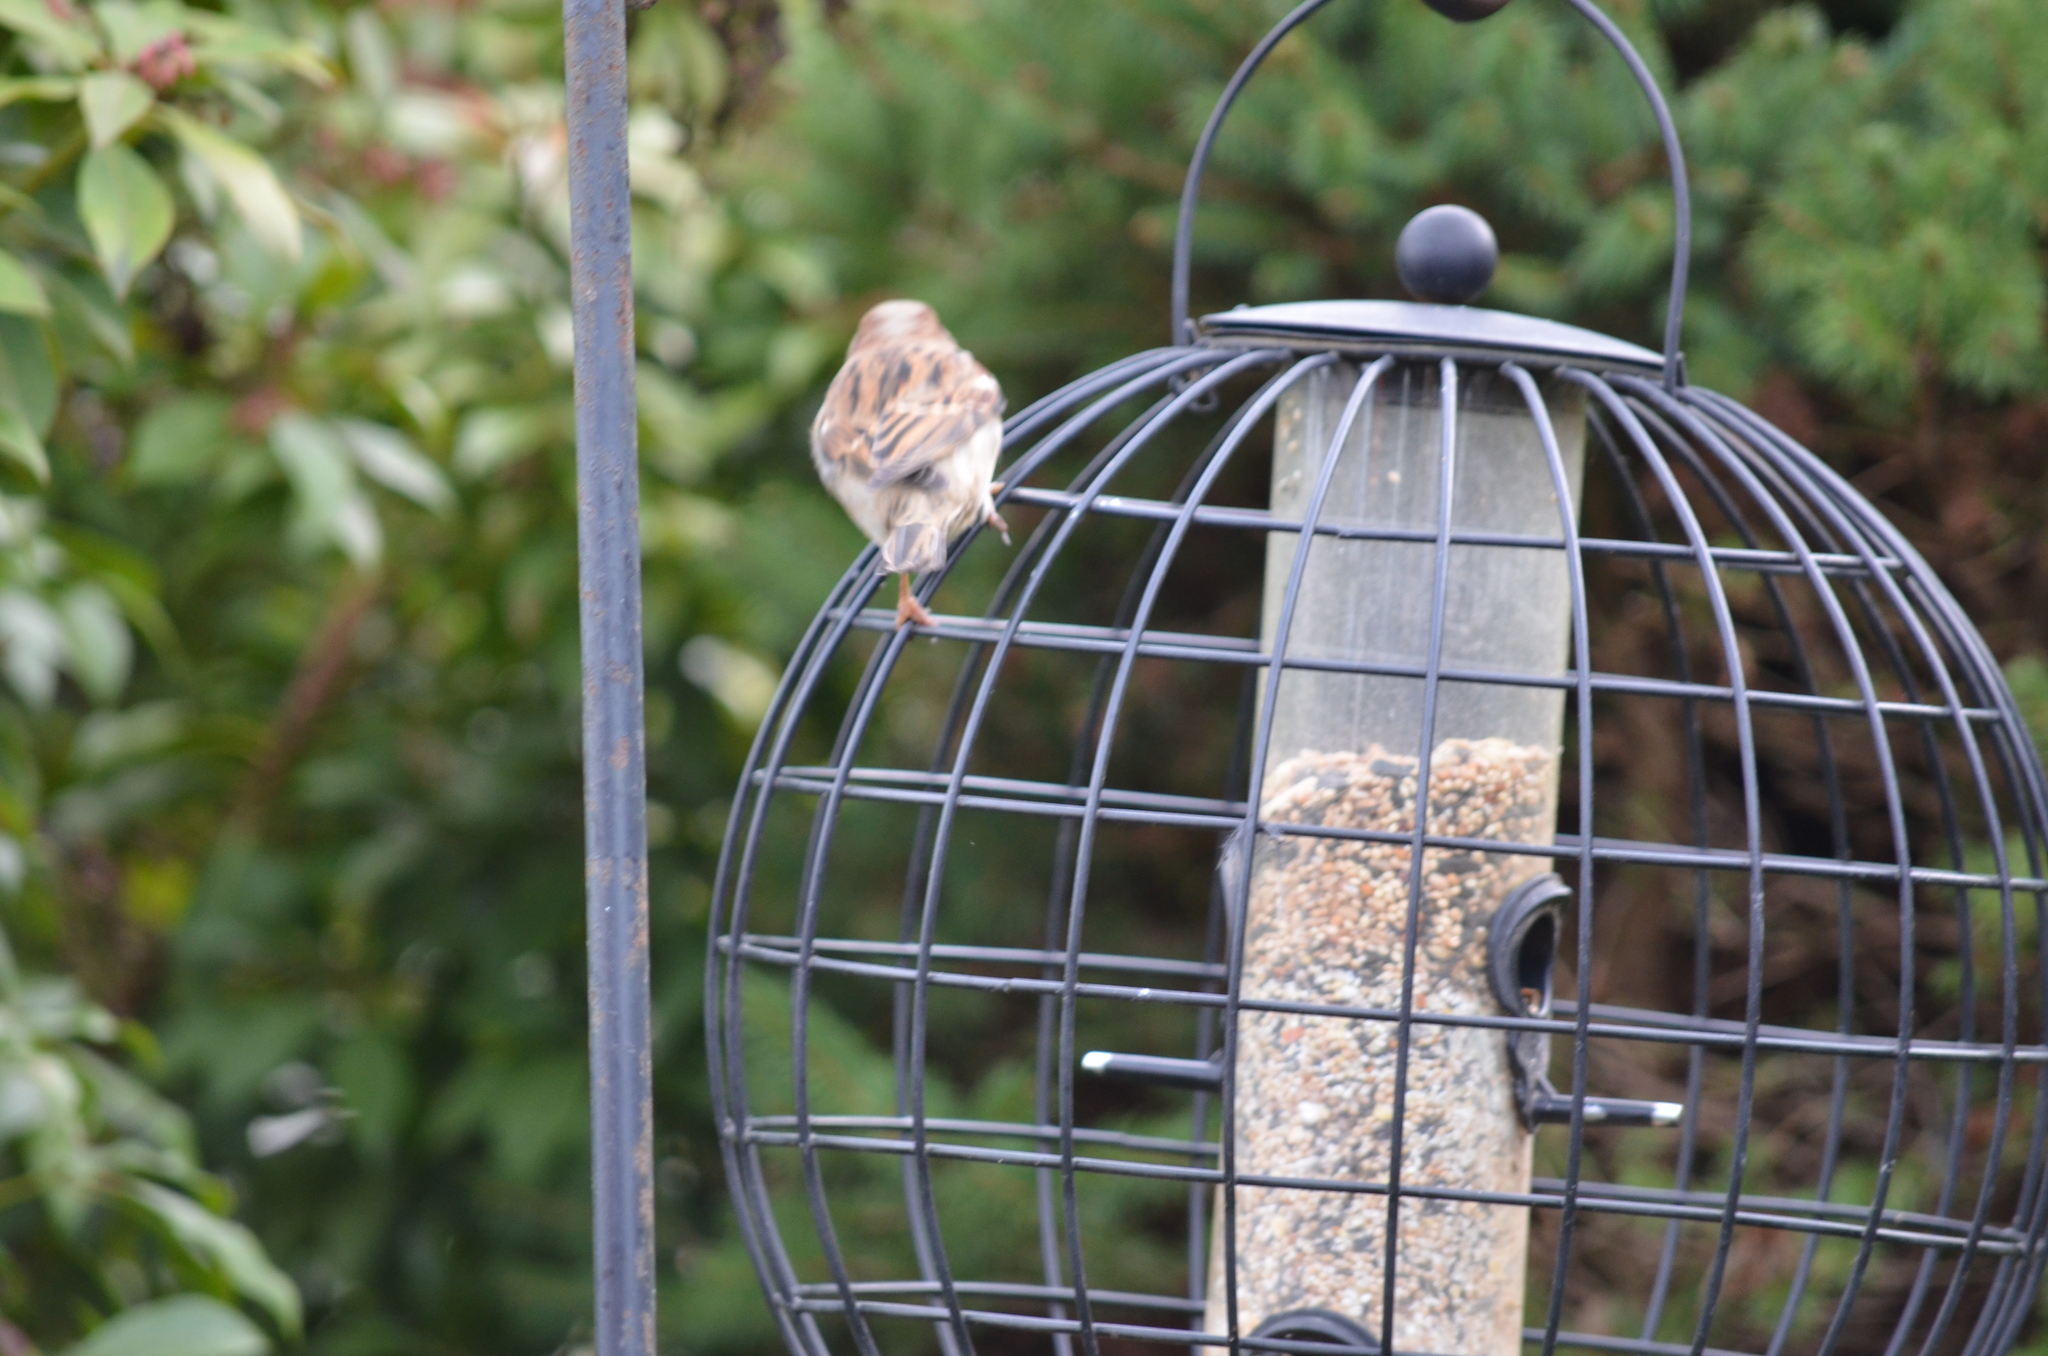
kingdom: Animalia
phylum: Chordata
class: Aves
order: Passeriformes
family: Passeridae
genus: Passer
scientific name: Passer domesticus
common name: House sparrow
